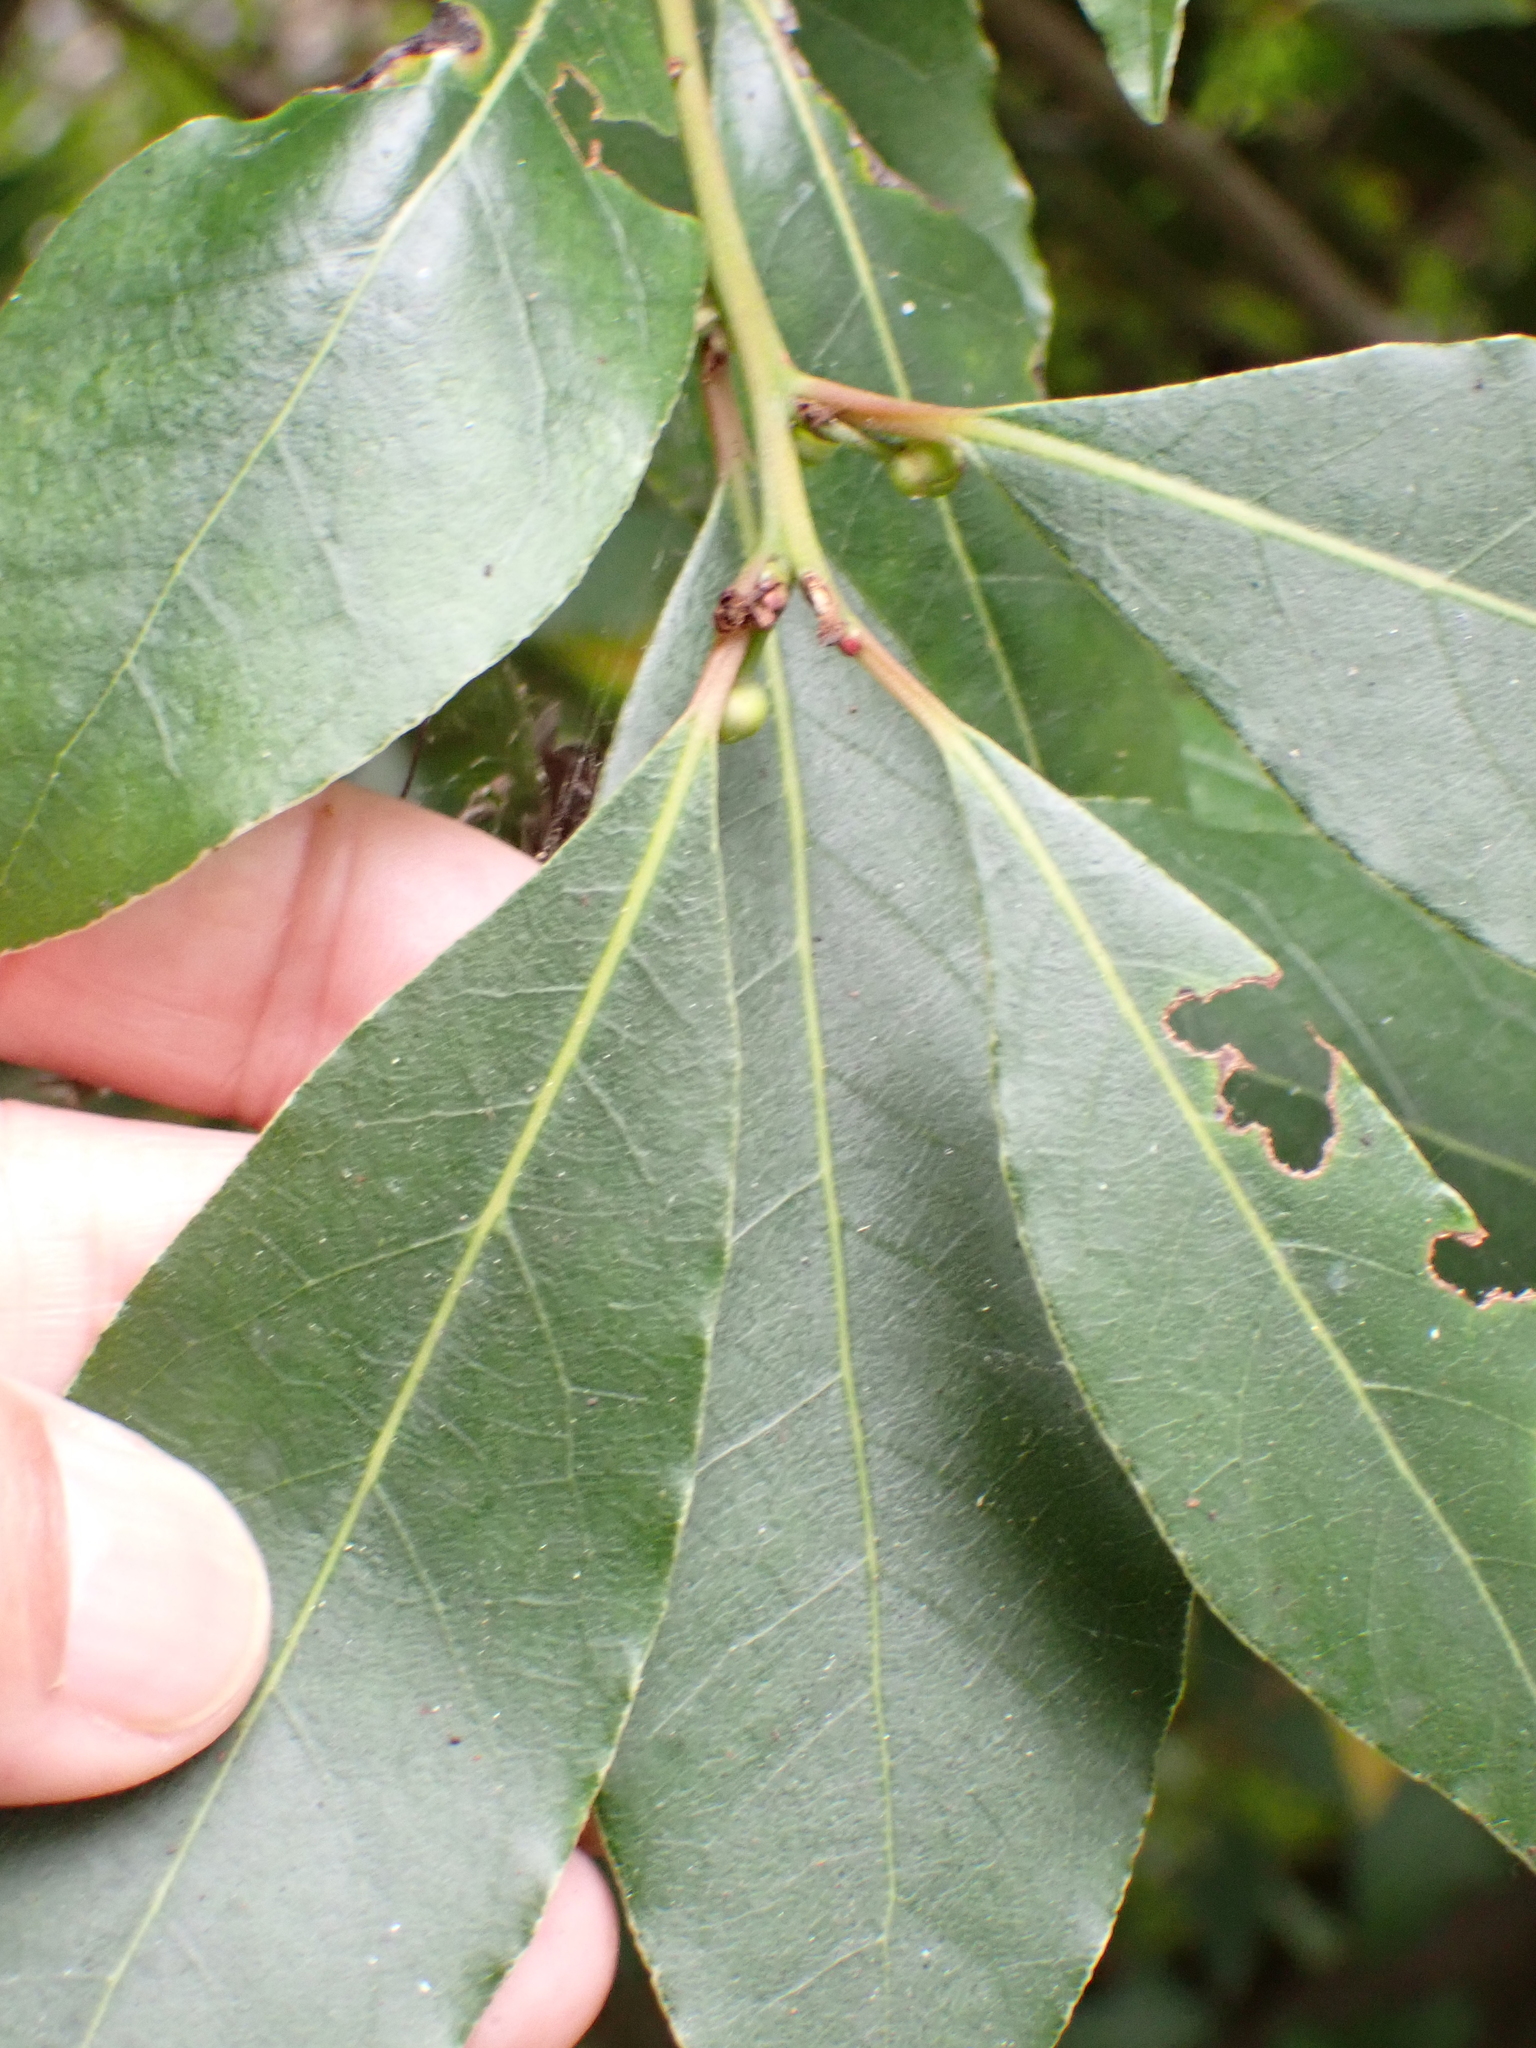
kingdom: Plantae
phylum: Tracheophyta
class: Magnoliopsida
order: Laurales
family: Lauraceae
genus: Laurus
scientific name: Laurus nobilis
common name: Bay
